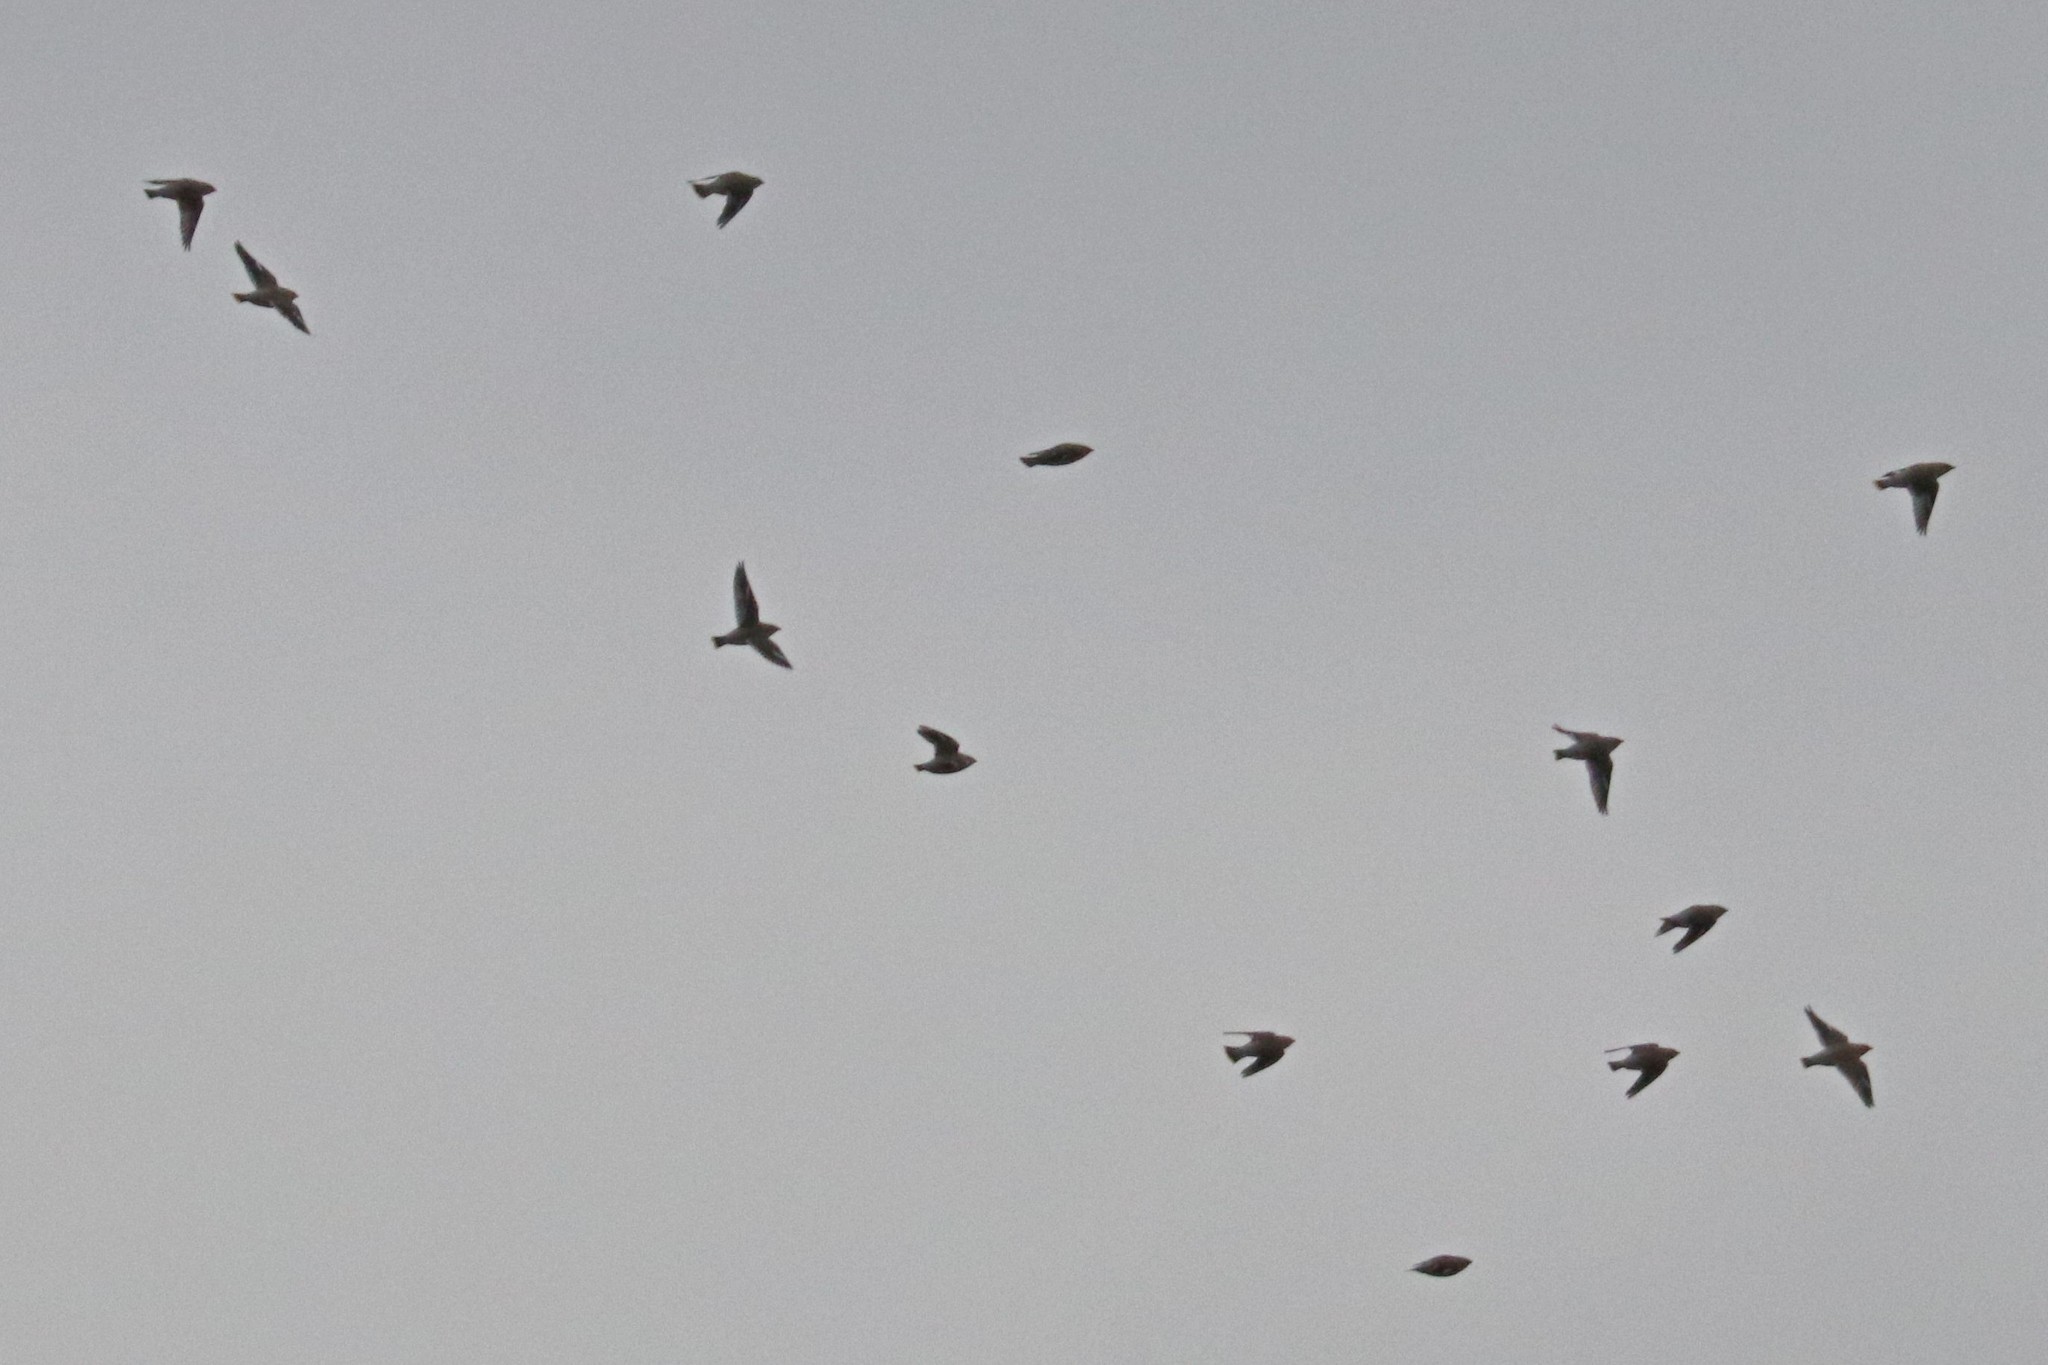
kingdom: Animalia
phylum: Chordata
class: Aves
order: Passeriformes
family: Bombycillidae
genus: Bombycilla
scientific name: Bombycilla garrulus
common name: Bohemian waxwing
